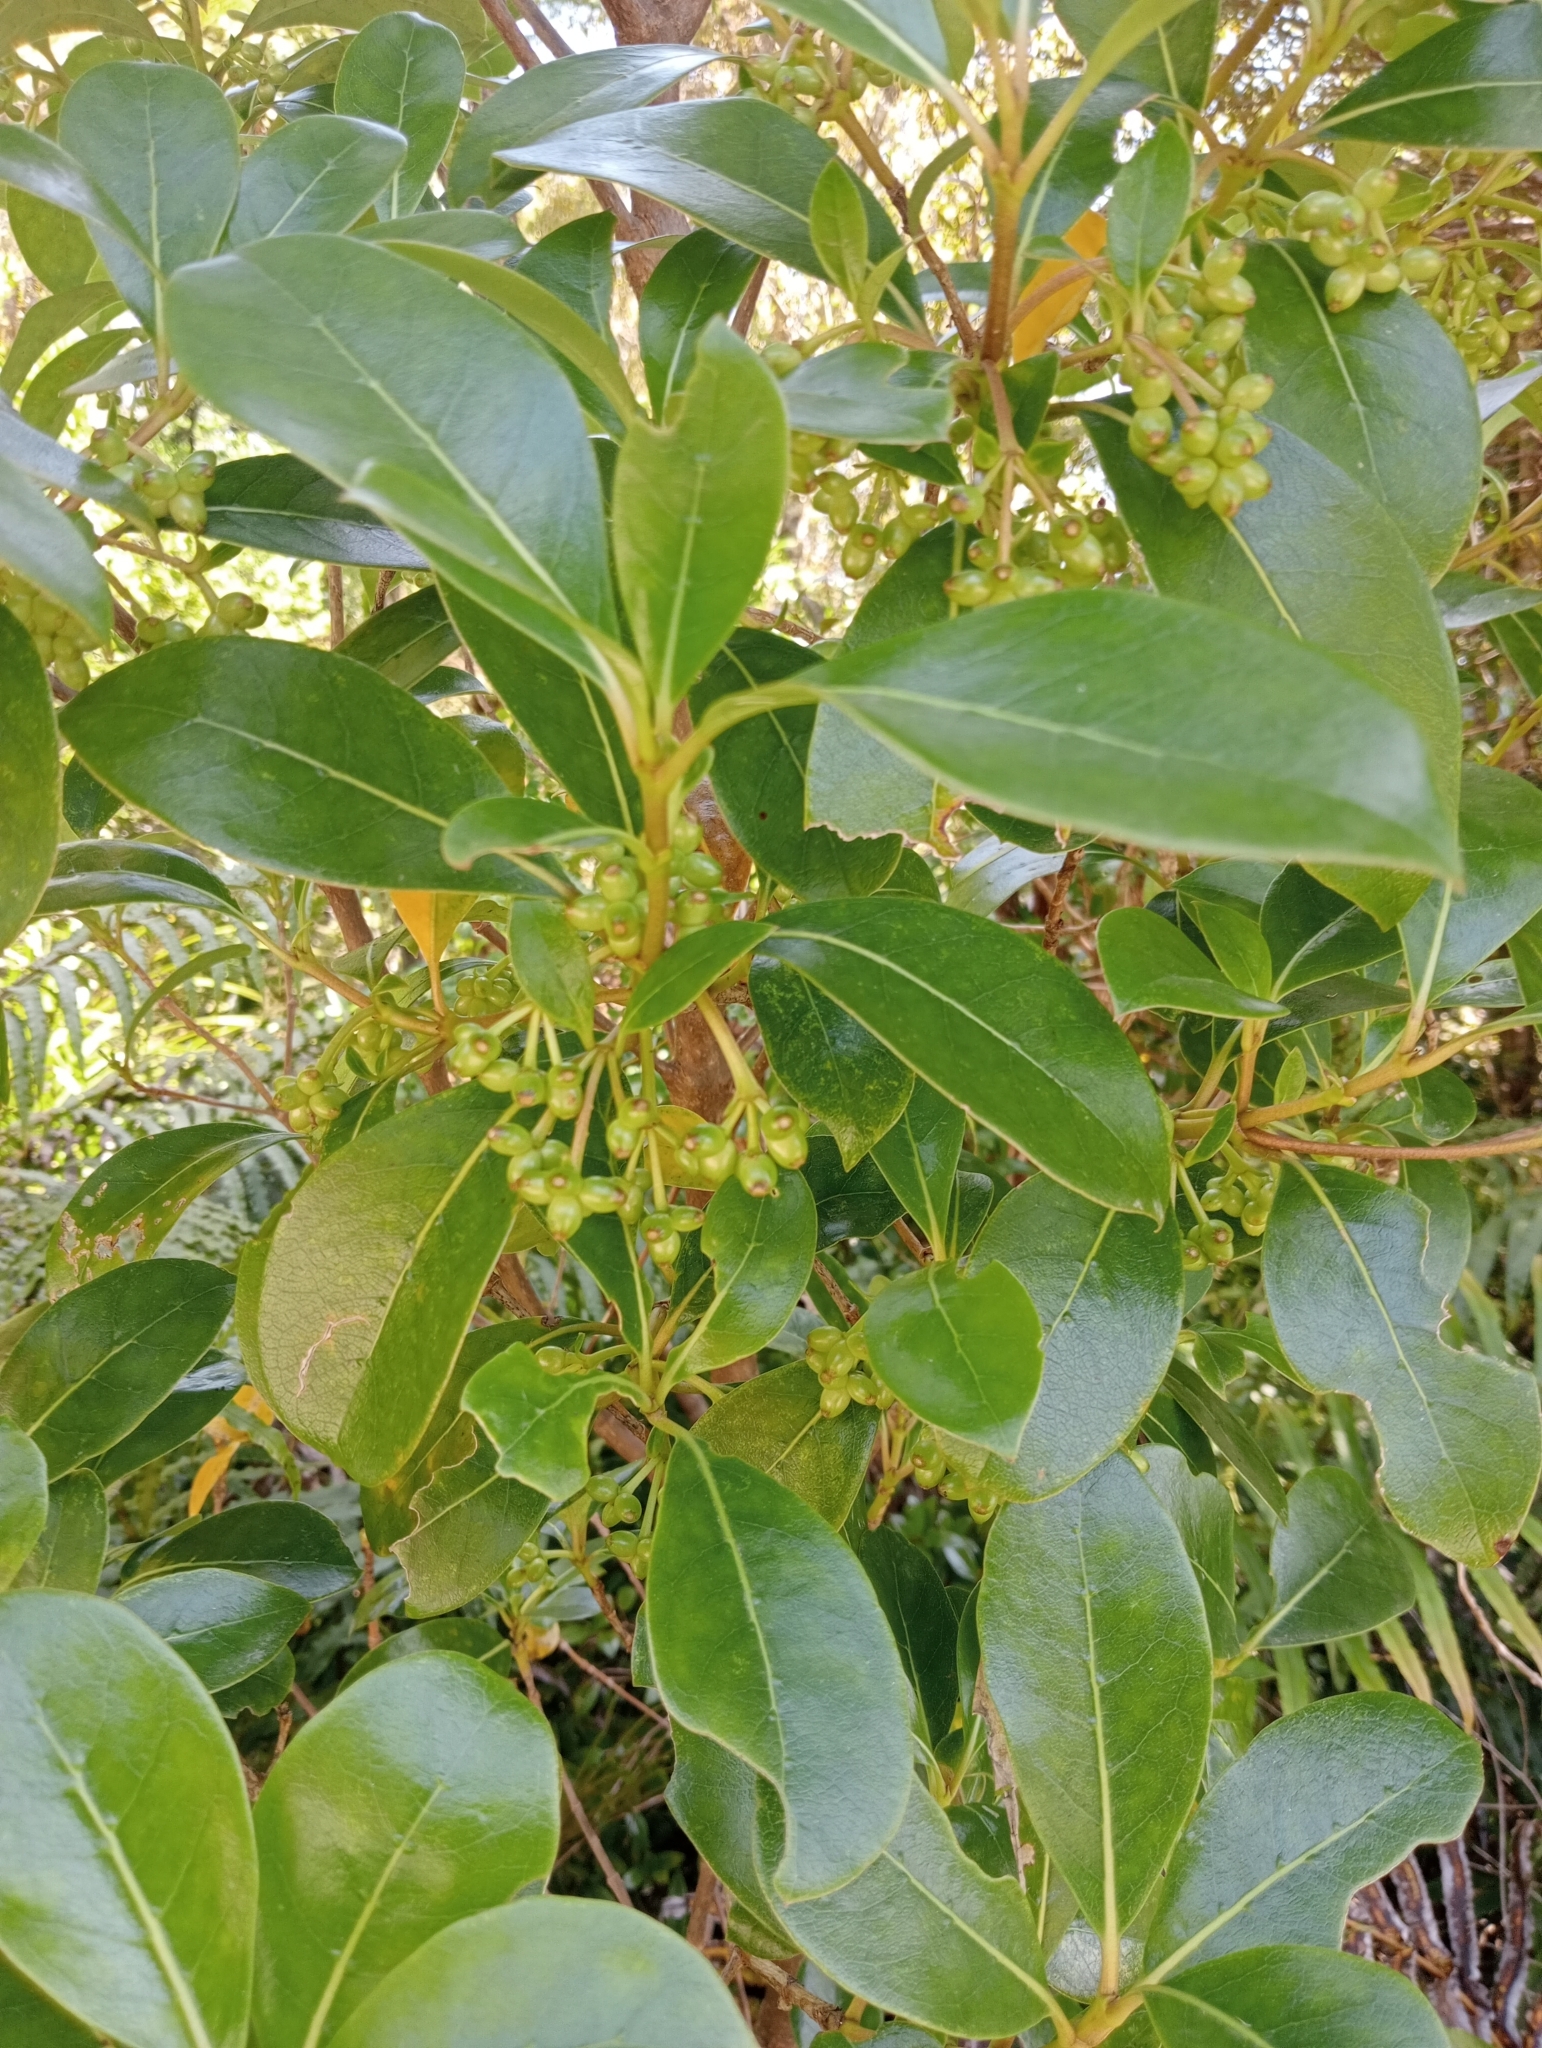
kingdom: Plantae
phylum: Tracheophyta
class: Magnoliopsida
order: Gentianales
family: Rubiaceae
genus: Coprosma
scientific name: Coprosma lucida
